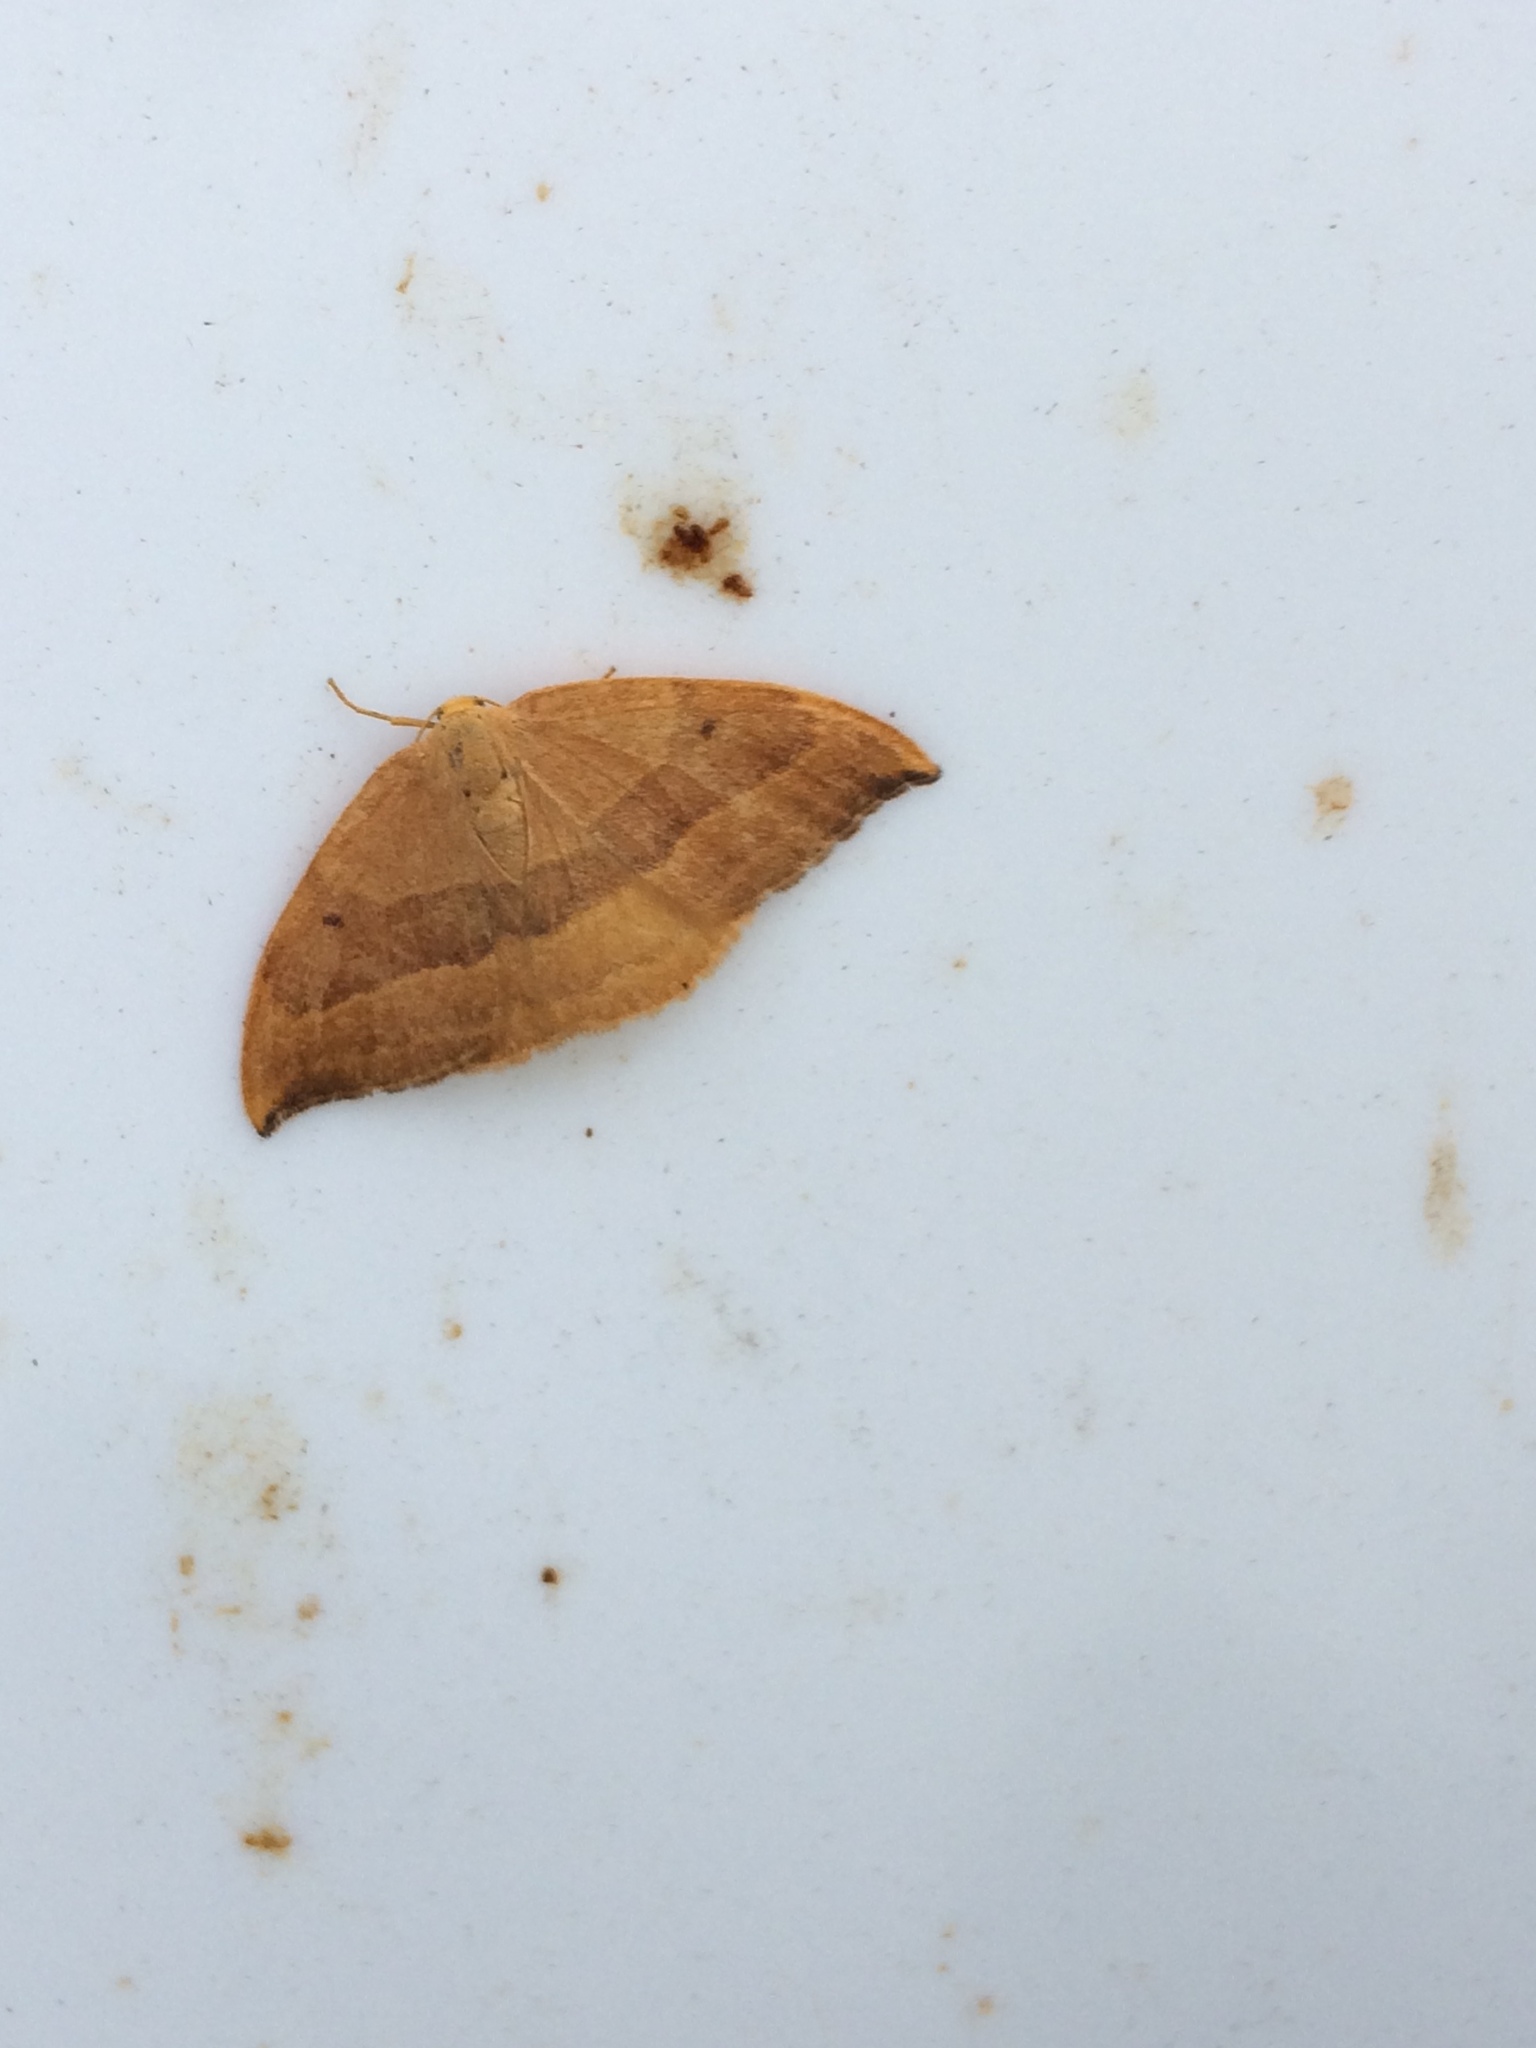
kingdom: Animalia
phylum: Arthropoda
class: Insecta
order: Lepidoptera
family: Drepanidae
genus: Watsonalla
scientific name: Watsonalla cultraria
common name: Barred hook-tip
